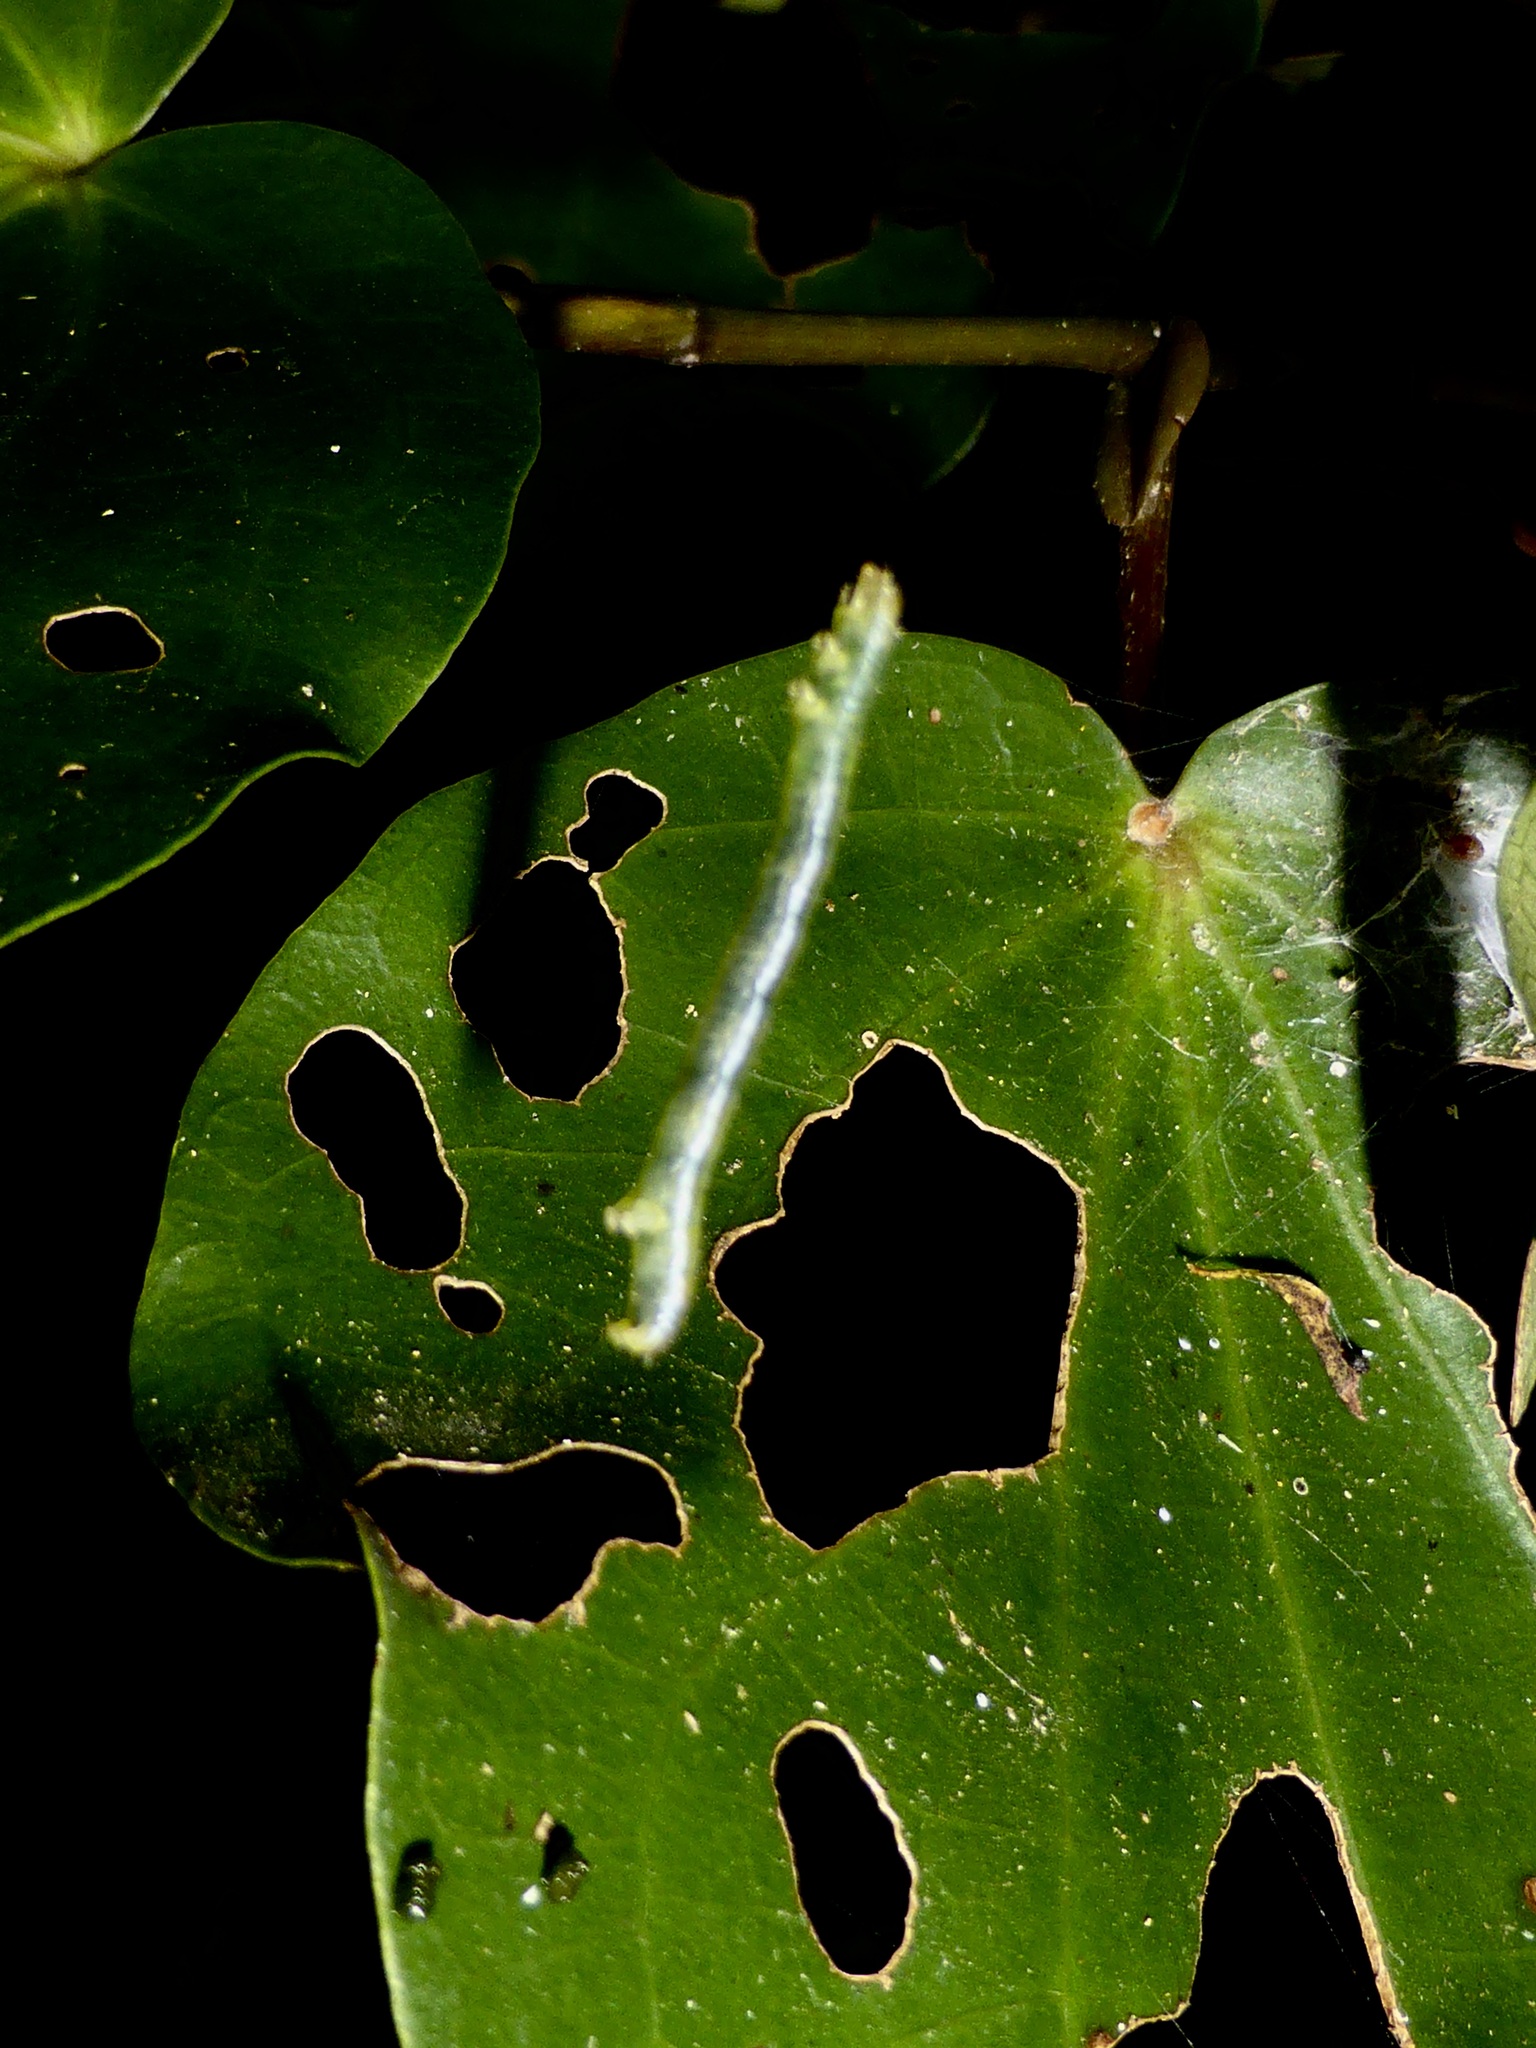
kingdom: Animalia
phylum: Arthropoda
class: Insecta
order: Lepidoptera
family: Geometridae
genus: Cleora
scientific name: Cleora scriptaria
